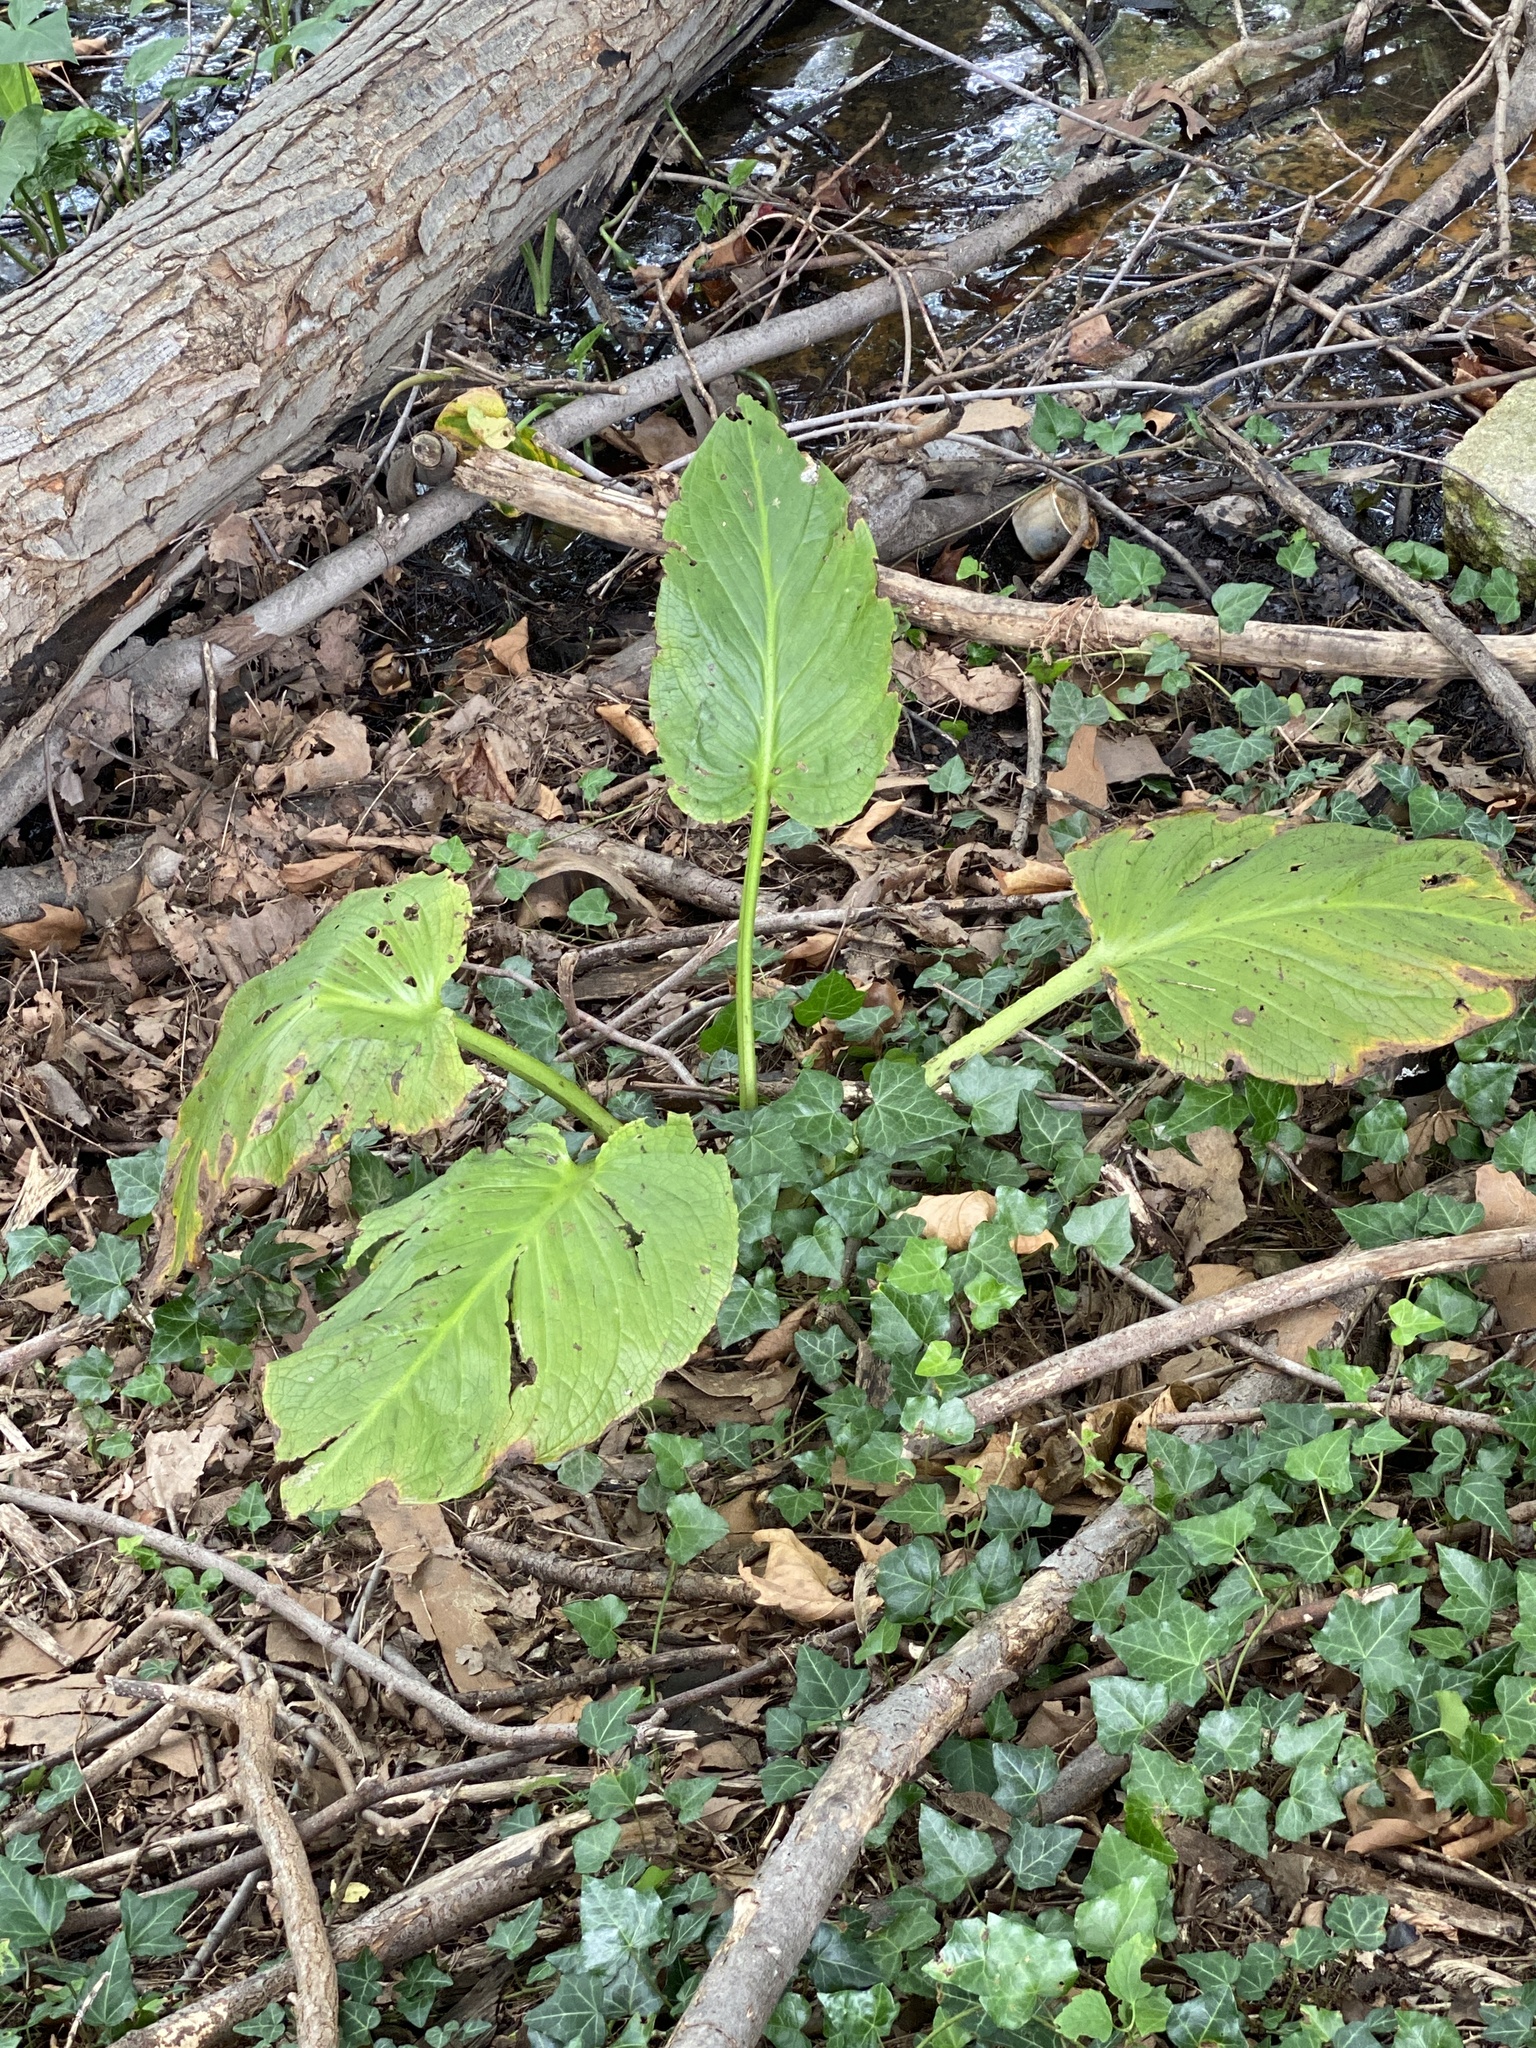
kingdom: Plantae
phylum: Tracheophyta
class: Liliopsida
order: Alismatales
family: Araceae
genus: Symplocarpus
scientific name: Symplocarpus foetidus
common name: Eastern skunk cabbage
